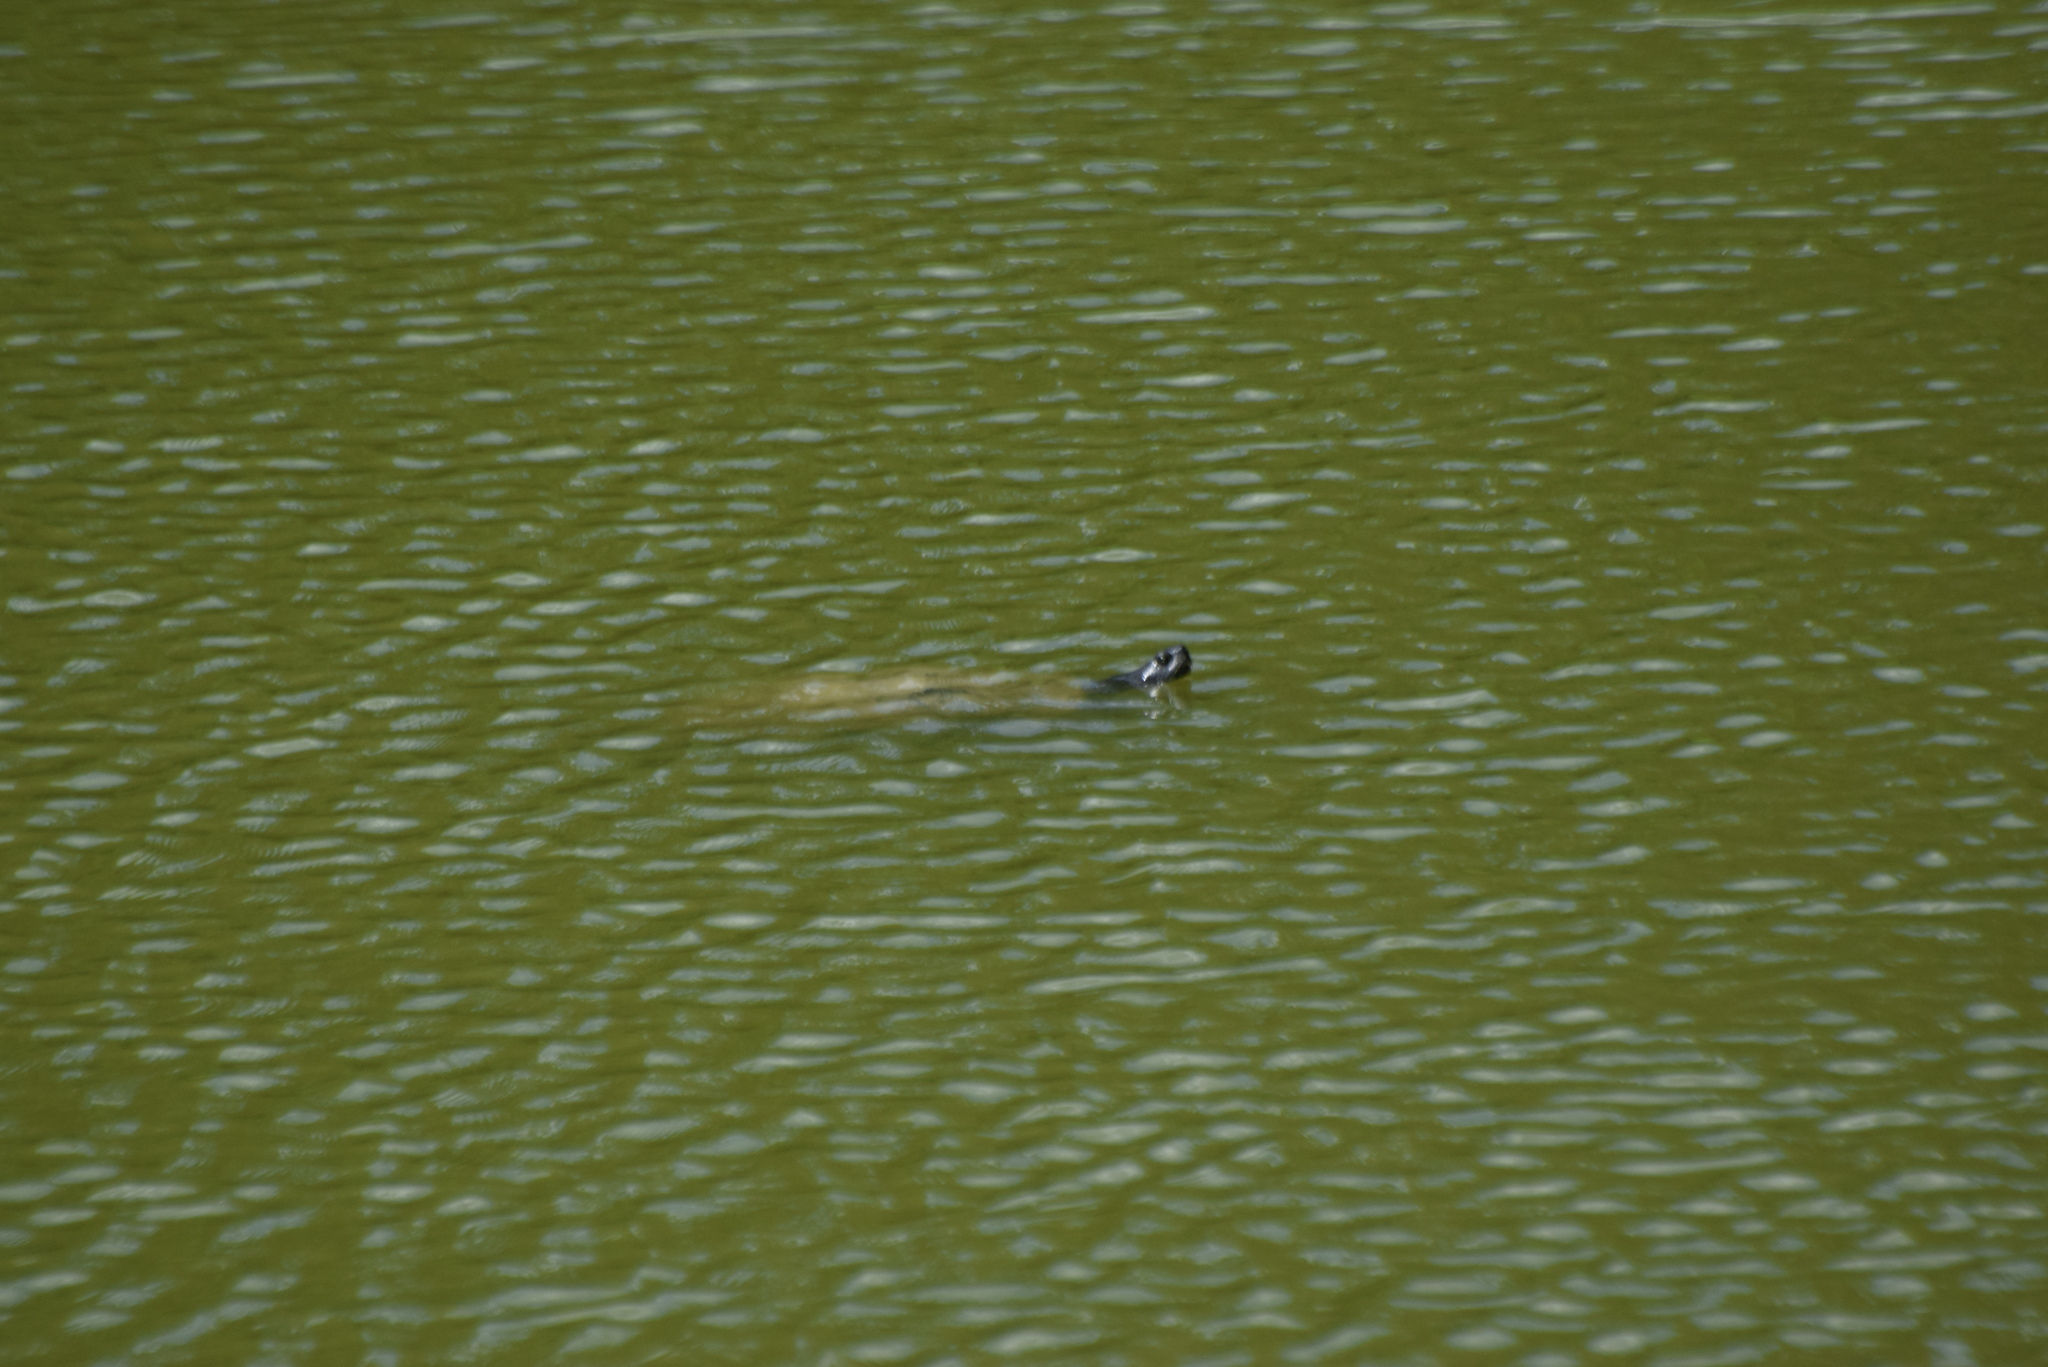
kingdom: Animalia
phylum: Chordata
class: Testudines
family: Emydidae
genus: Pseudemys
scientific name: Pseudemys rubriventris
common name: American red-bellied turtle
